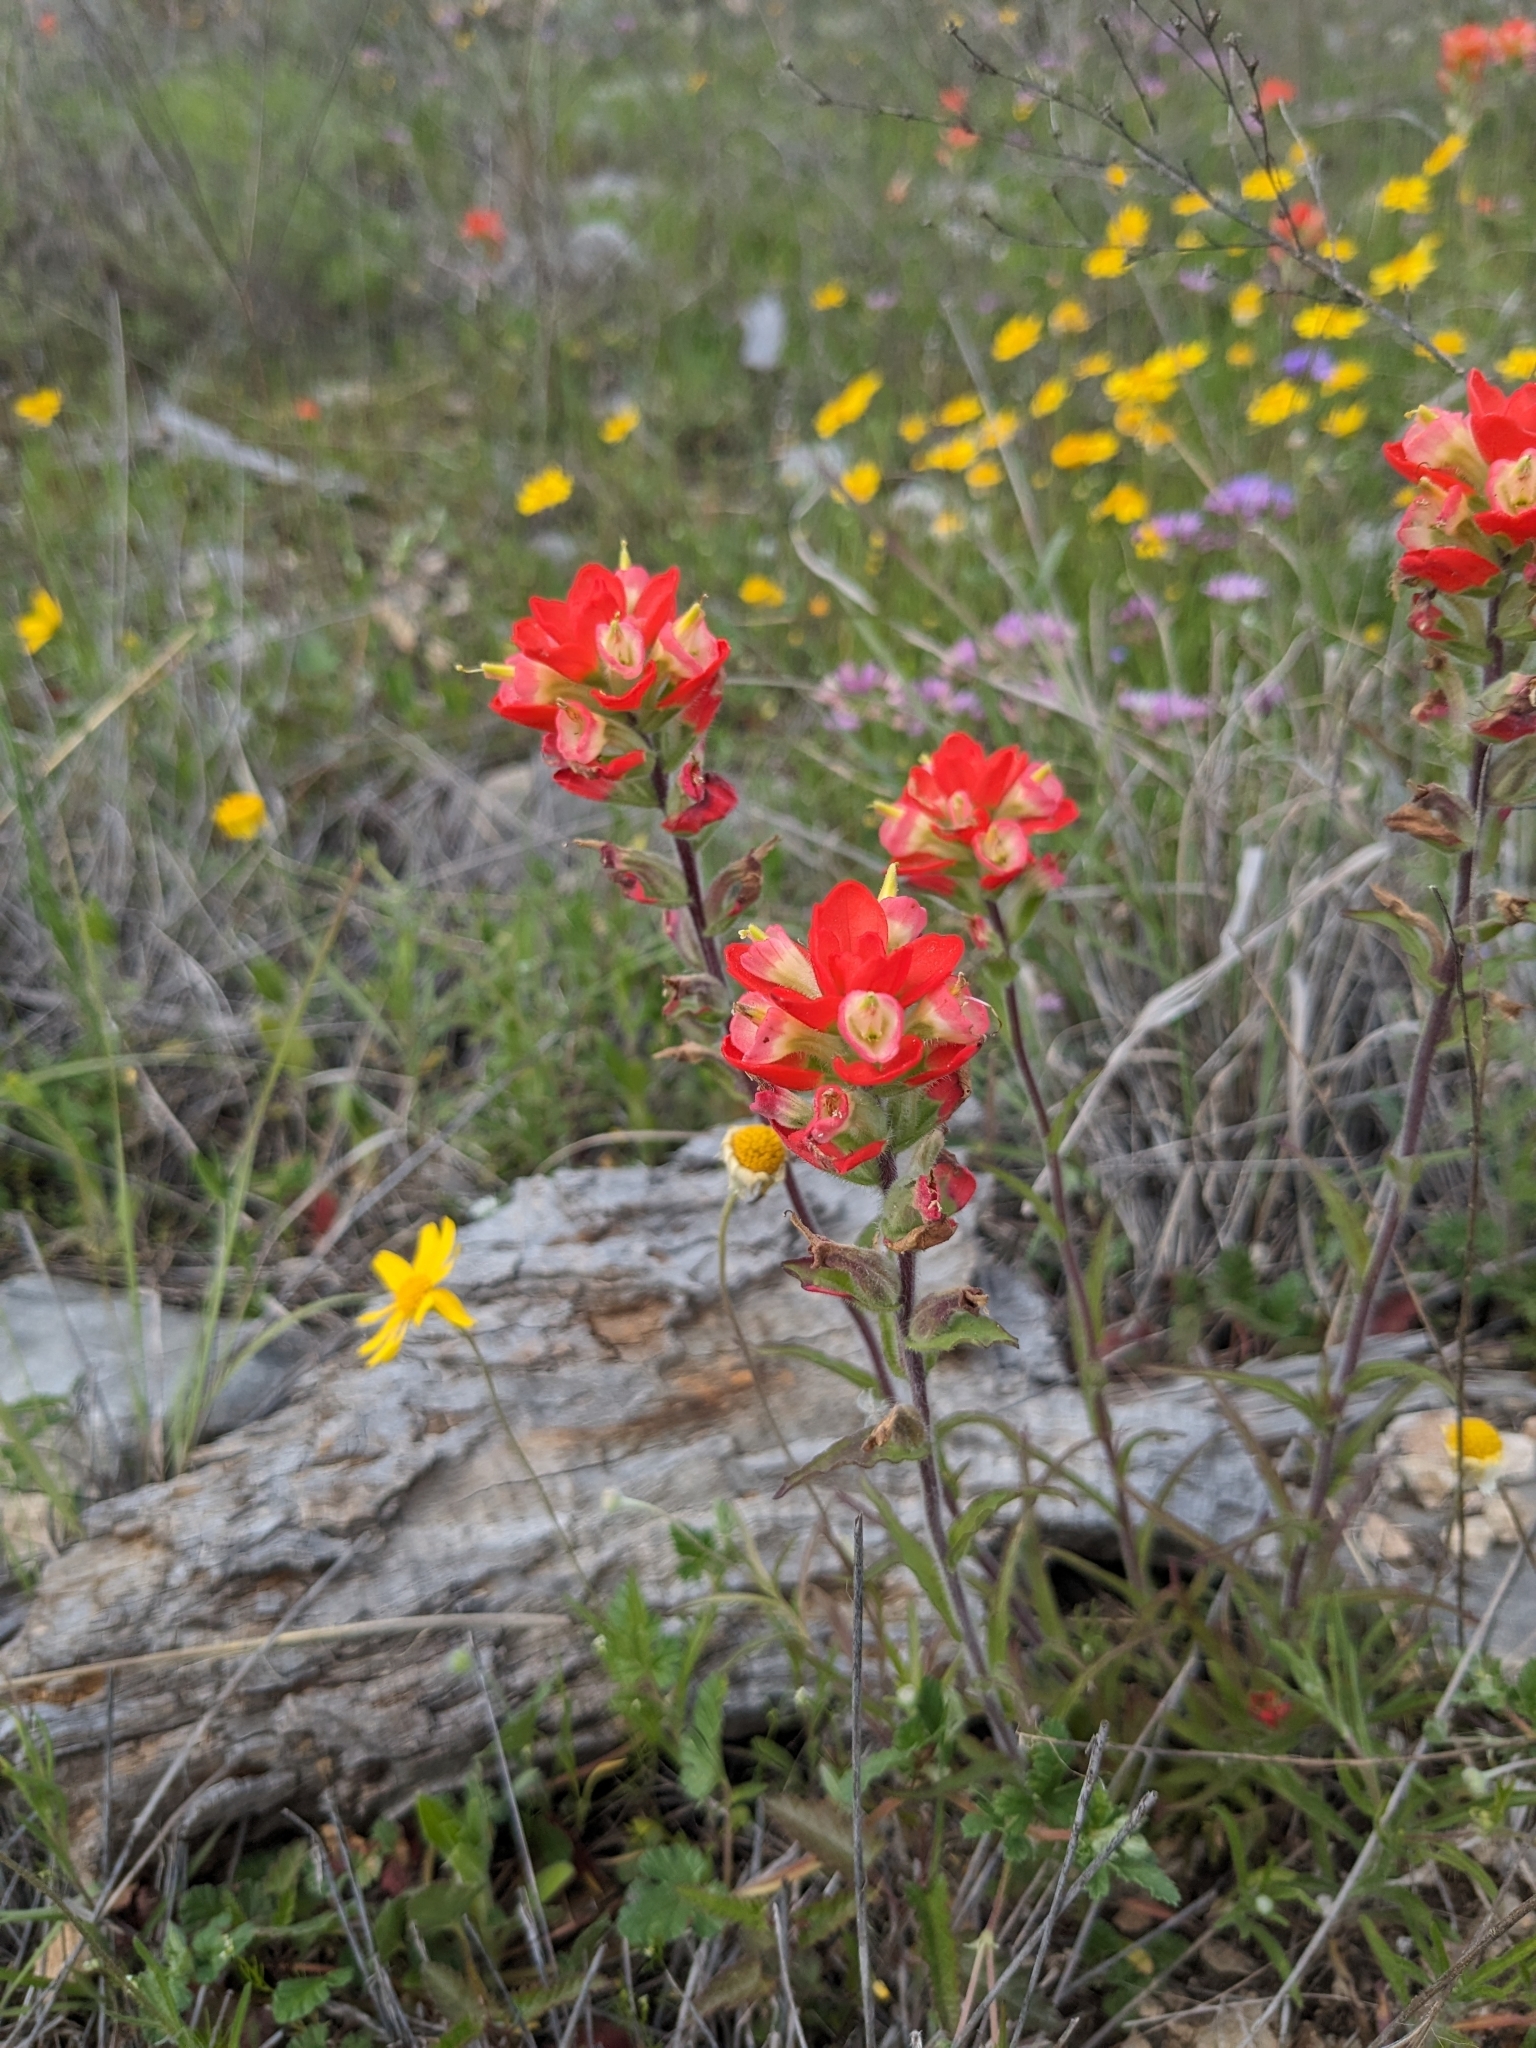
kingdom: Plantae
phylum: Tracheophyta
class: Magnoliopsida
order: Lamiales
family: Orobanchaceae
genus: Castilleja
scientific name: Castilleja indivisa
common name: Texas paintbrush
